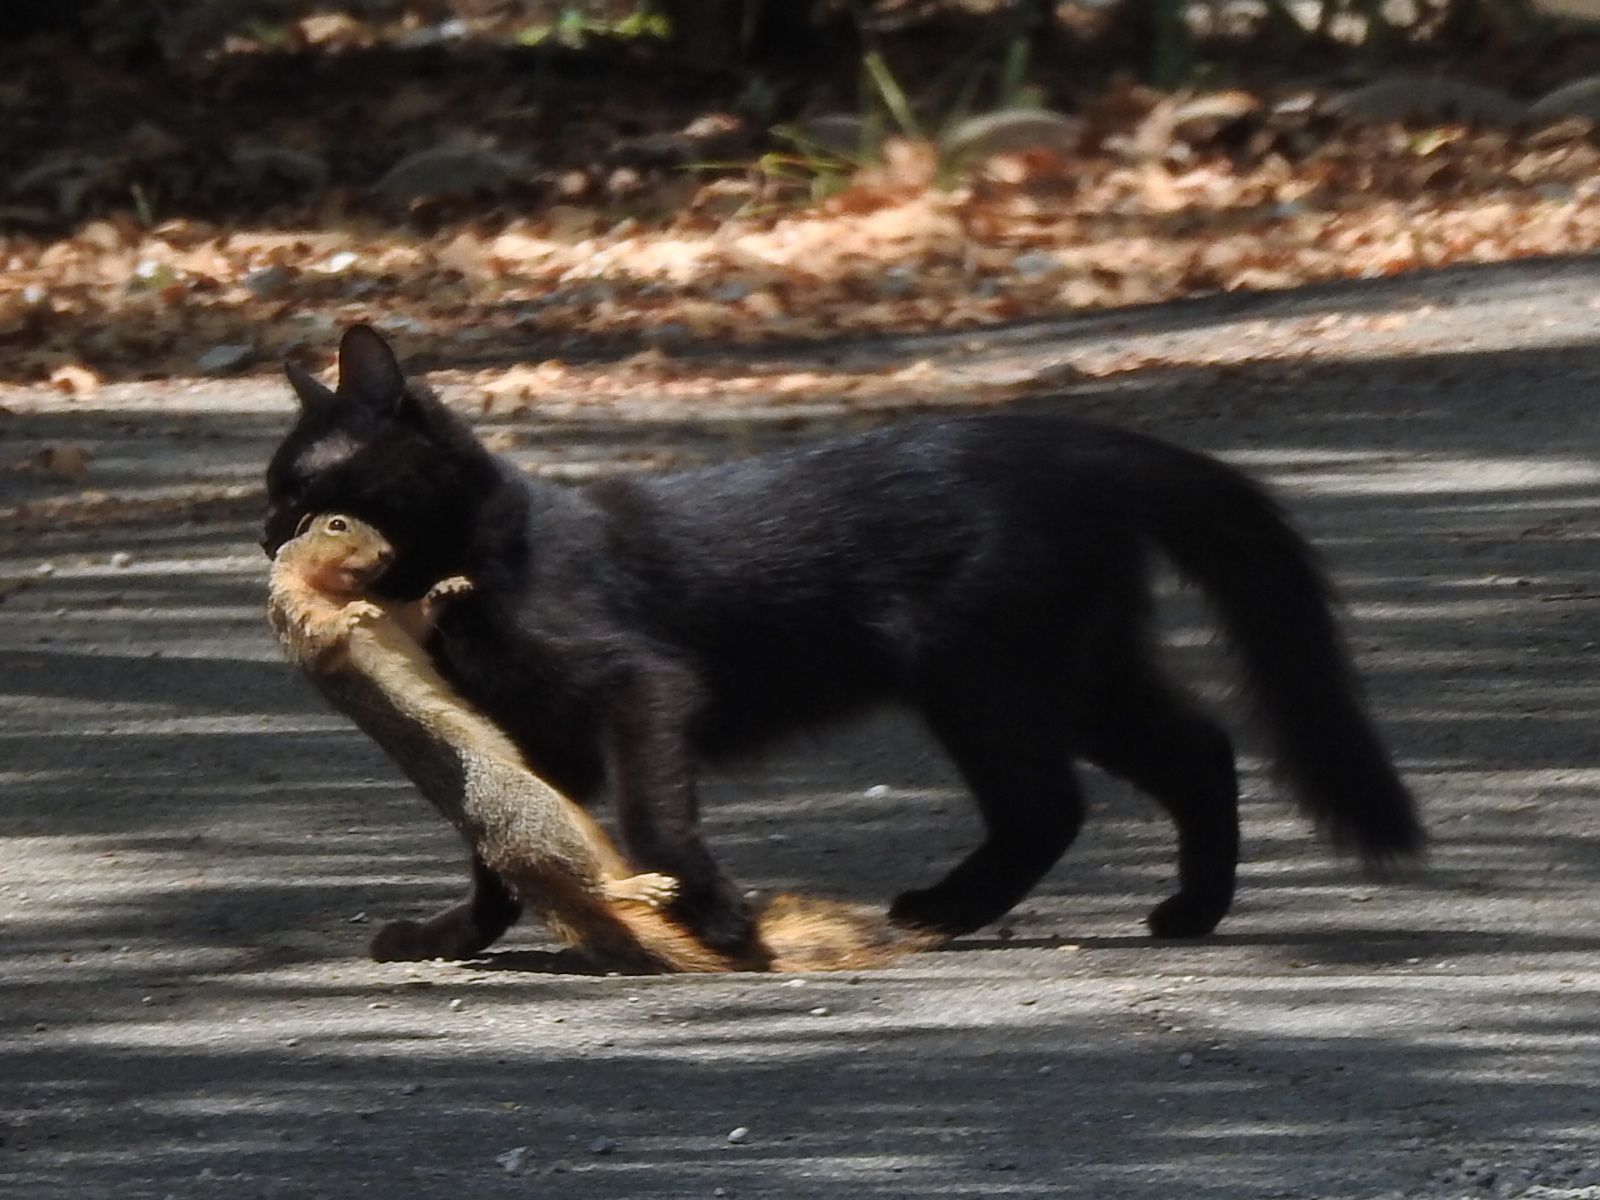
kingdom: Animalia
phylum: Chordata
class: Mammalia
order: Rodentia
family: Sciuridae
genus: Sciurus
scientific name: Sciurus niger
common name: Fox squirrel
